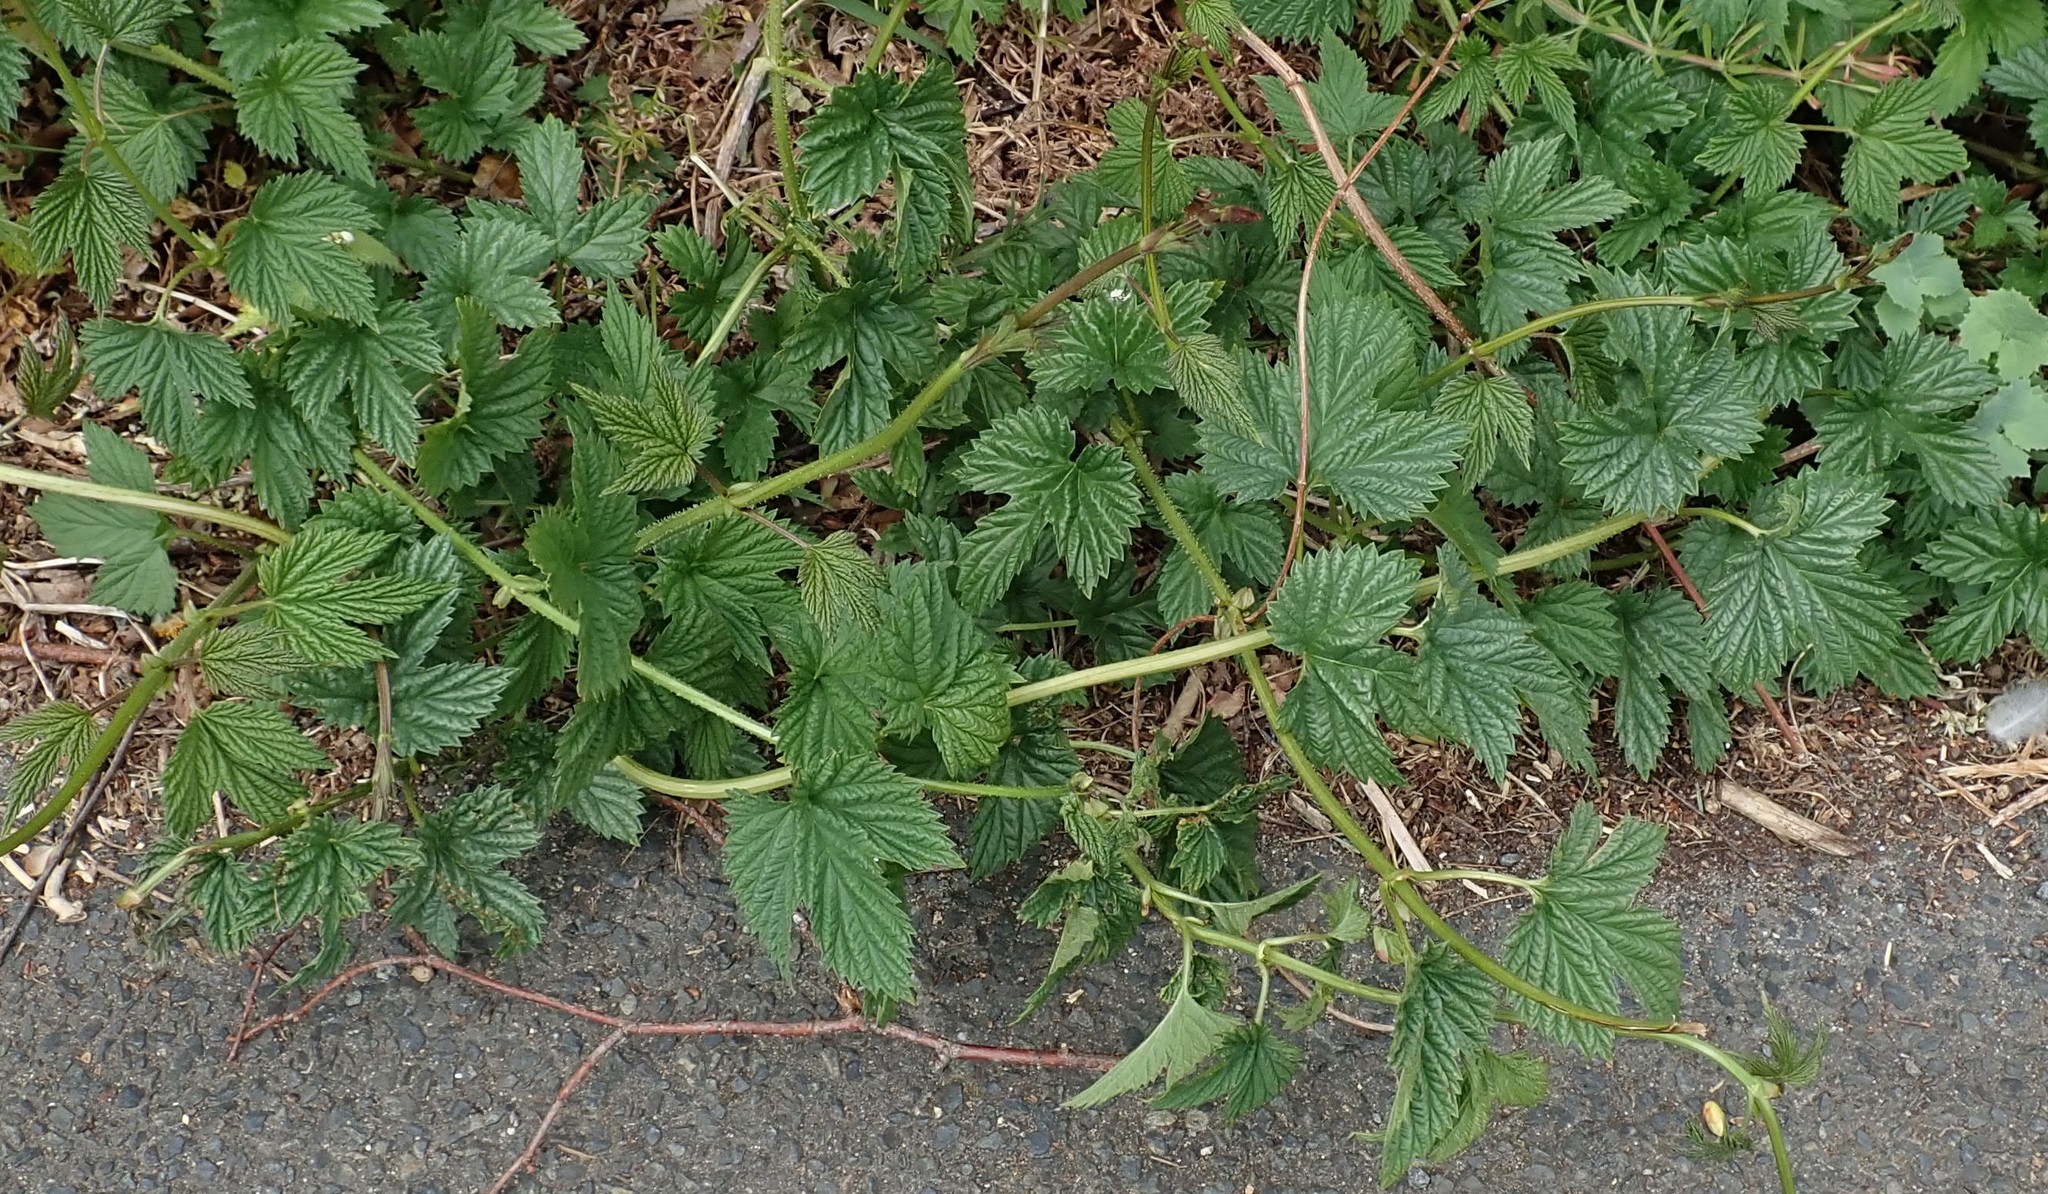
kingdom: Plantae
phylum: Tracheophyta
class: Magnoliopsida
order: Rosales
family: Cannabaceae
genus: Humulus
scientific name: Humulus lupulus
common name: Hop
